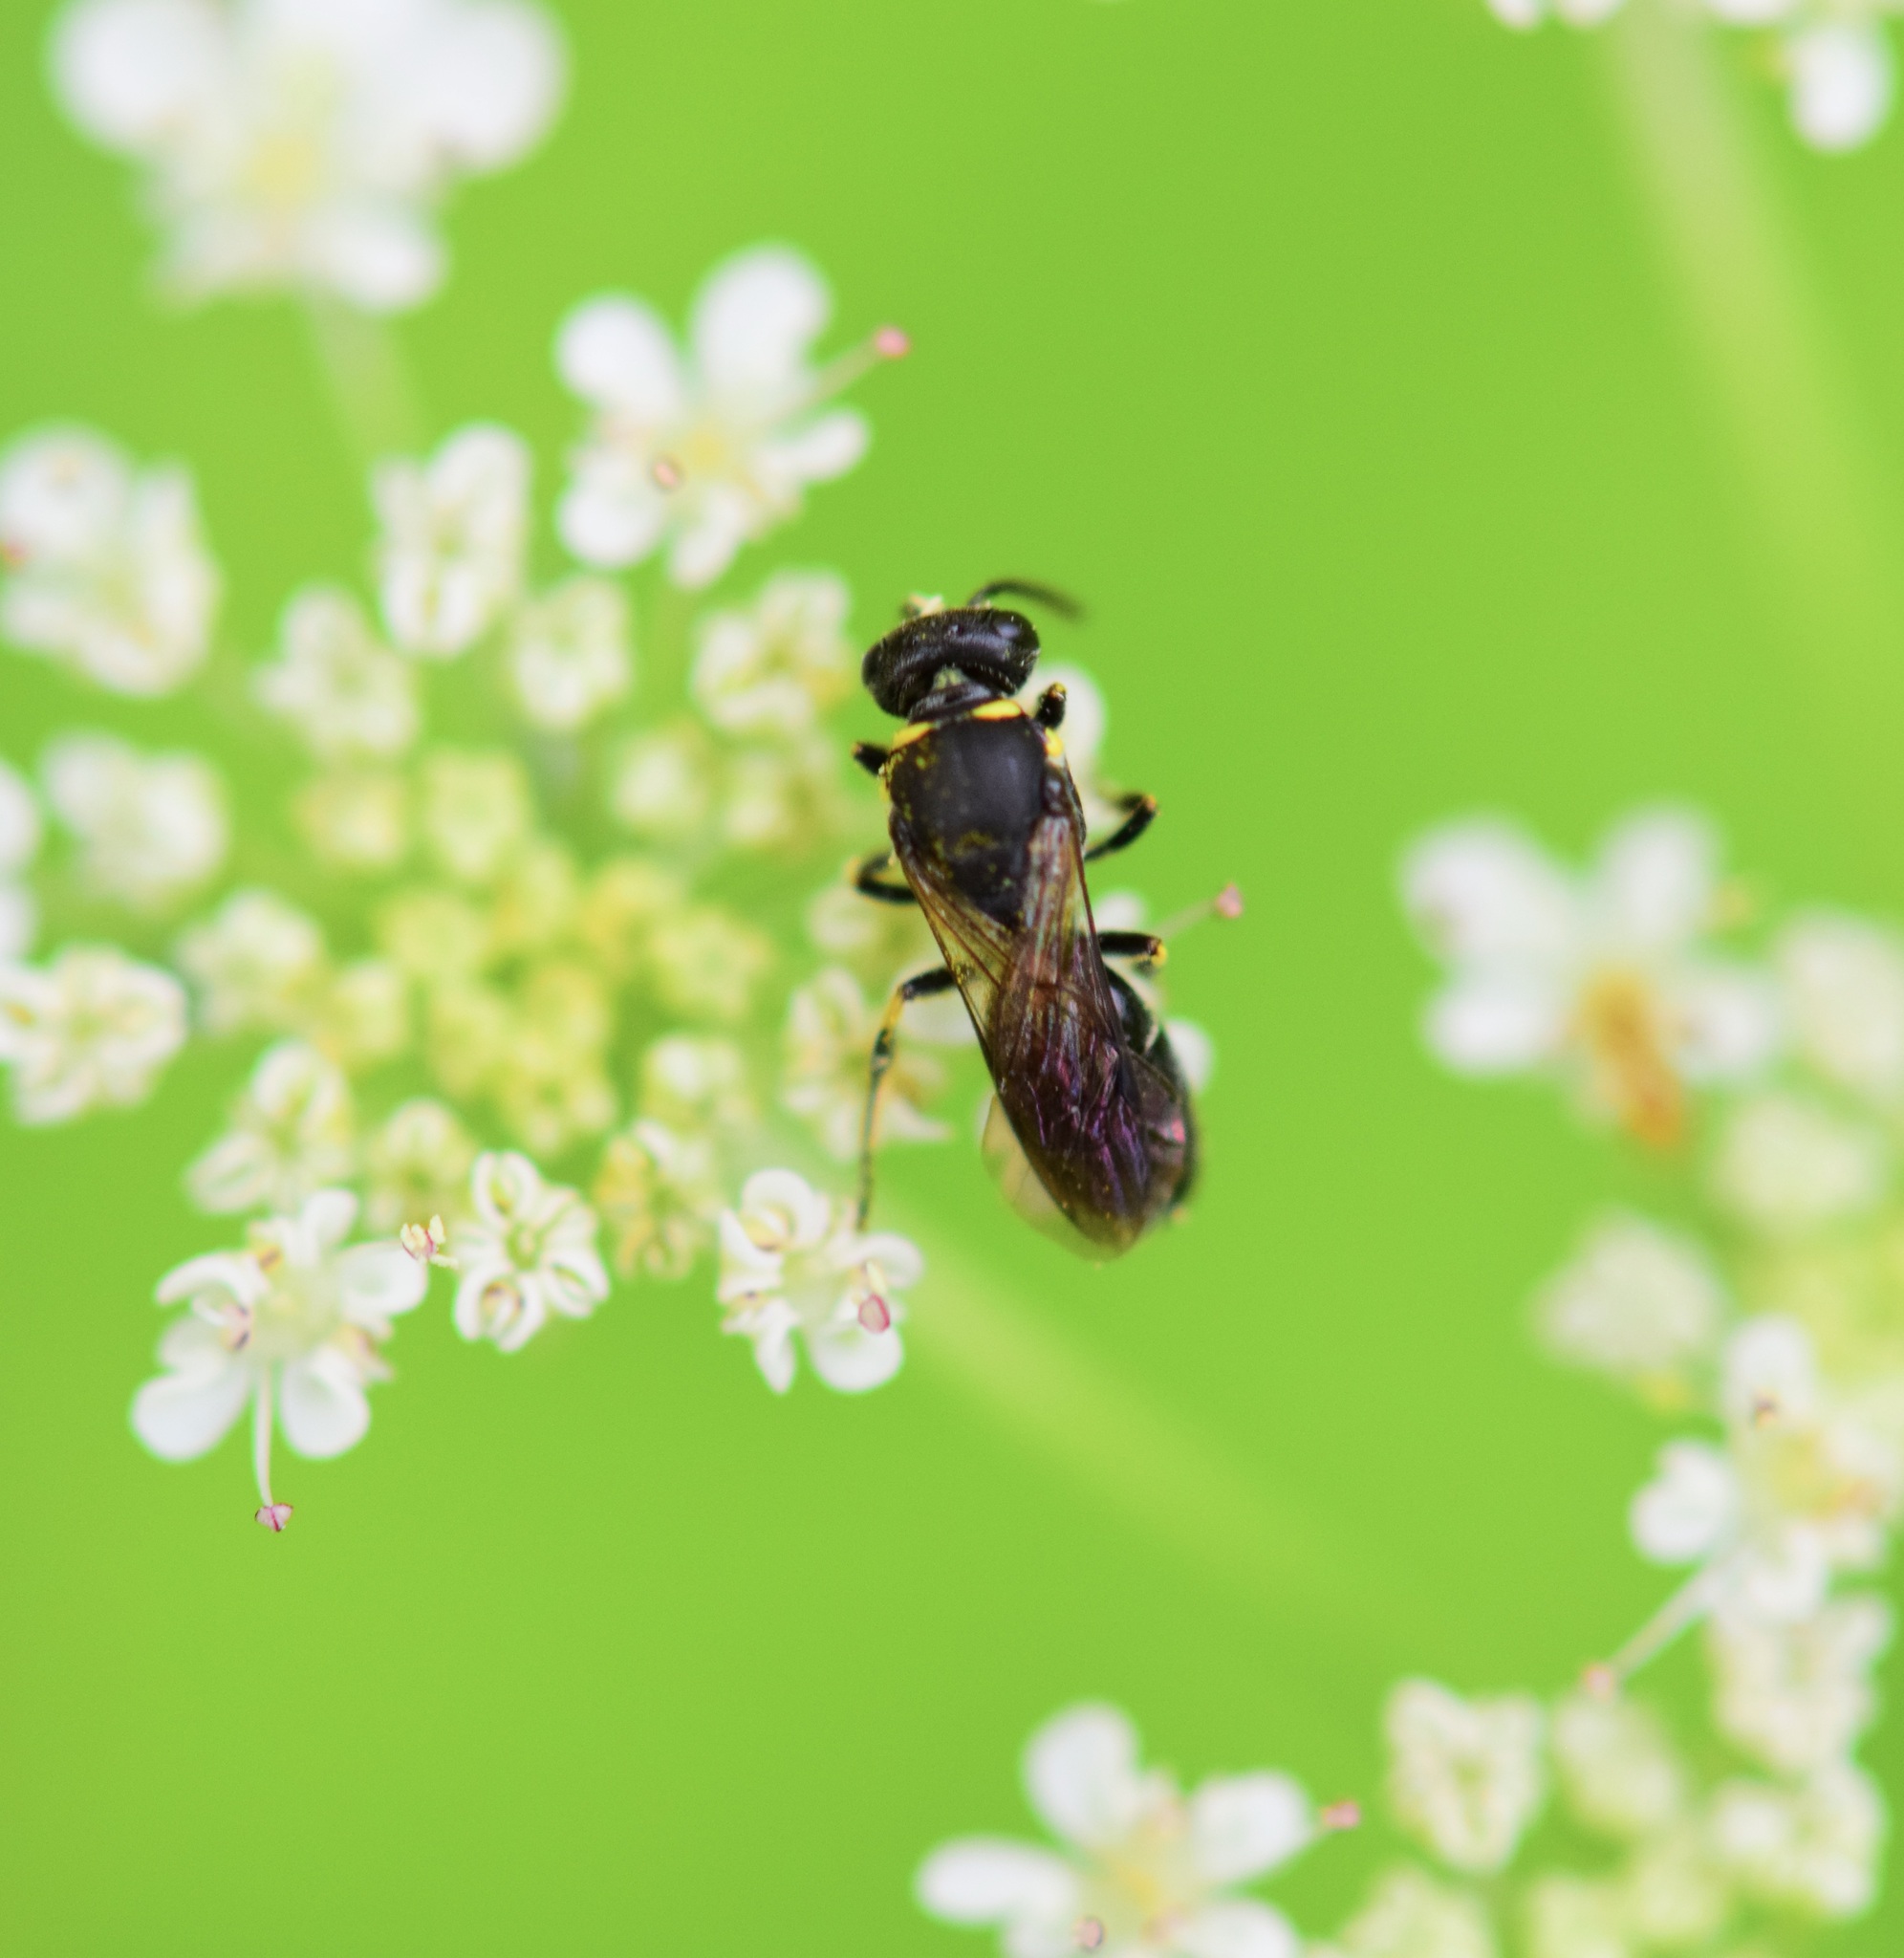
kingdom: Animalia
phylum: Arthropoda
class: Insecta
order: Hymenoptera
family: Colletidae
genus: Hylaeus
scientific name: Hylaeus modestus
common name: Yellow-faced bee
